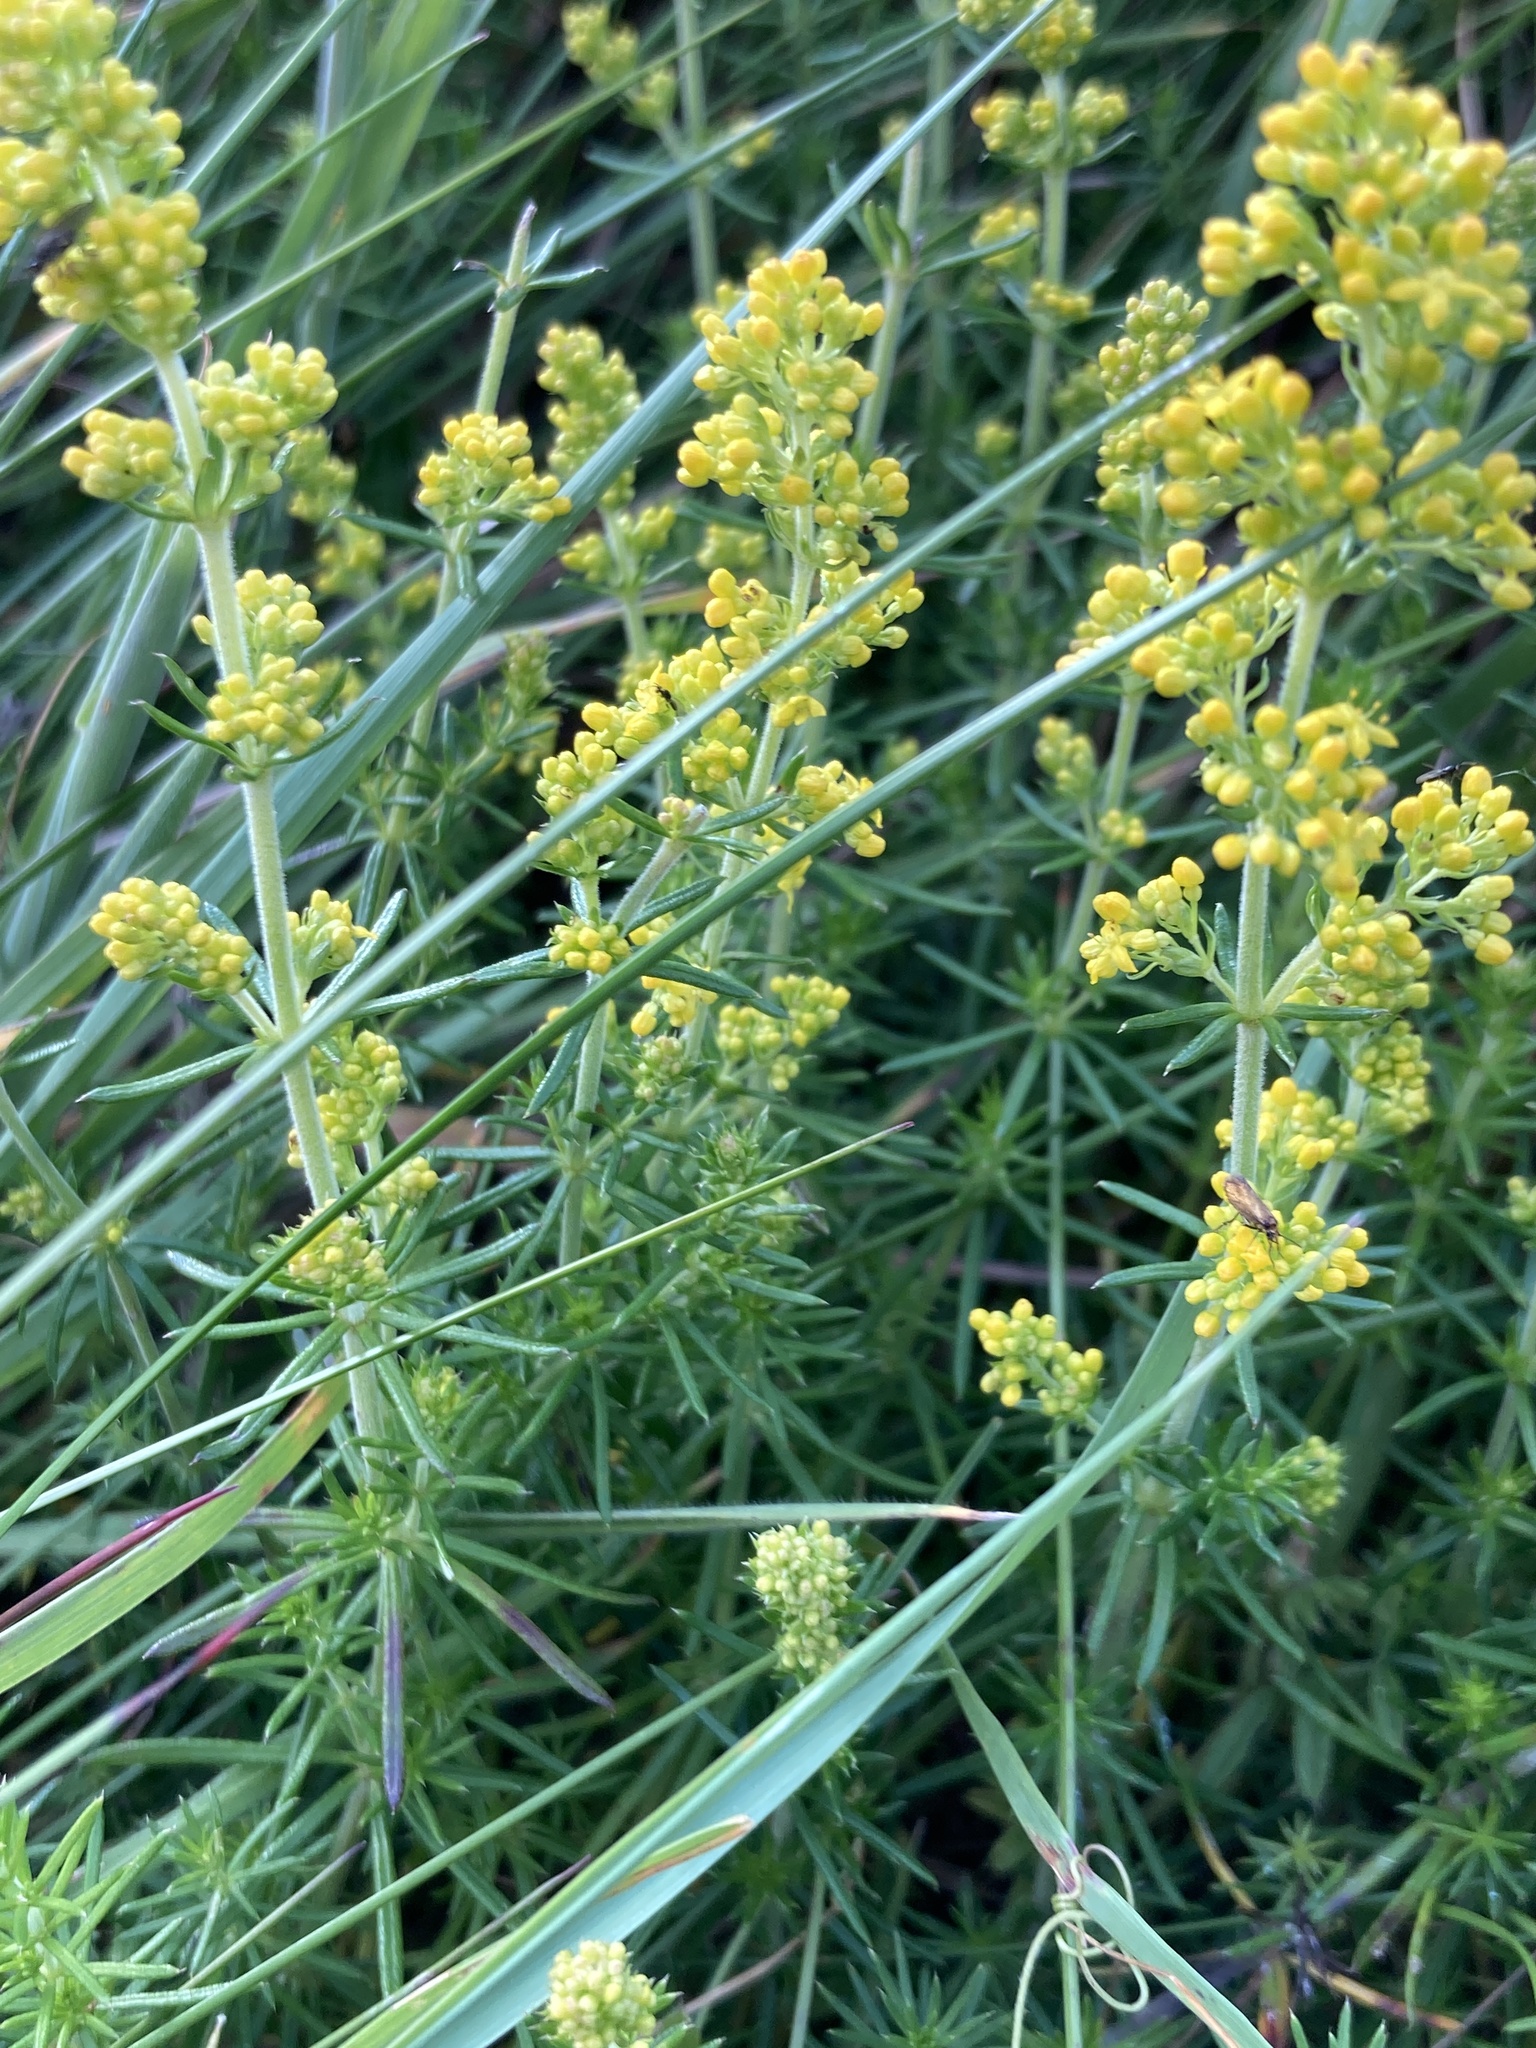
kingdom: Plantae
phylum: Tracheophyta
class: Magnoliopsida
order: Gentianales
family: Rubiaceae
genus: Galium
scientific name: Galium verum
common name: Lady's bedstraw
